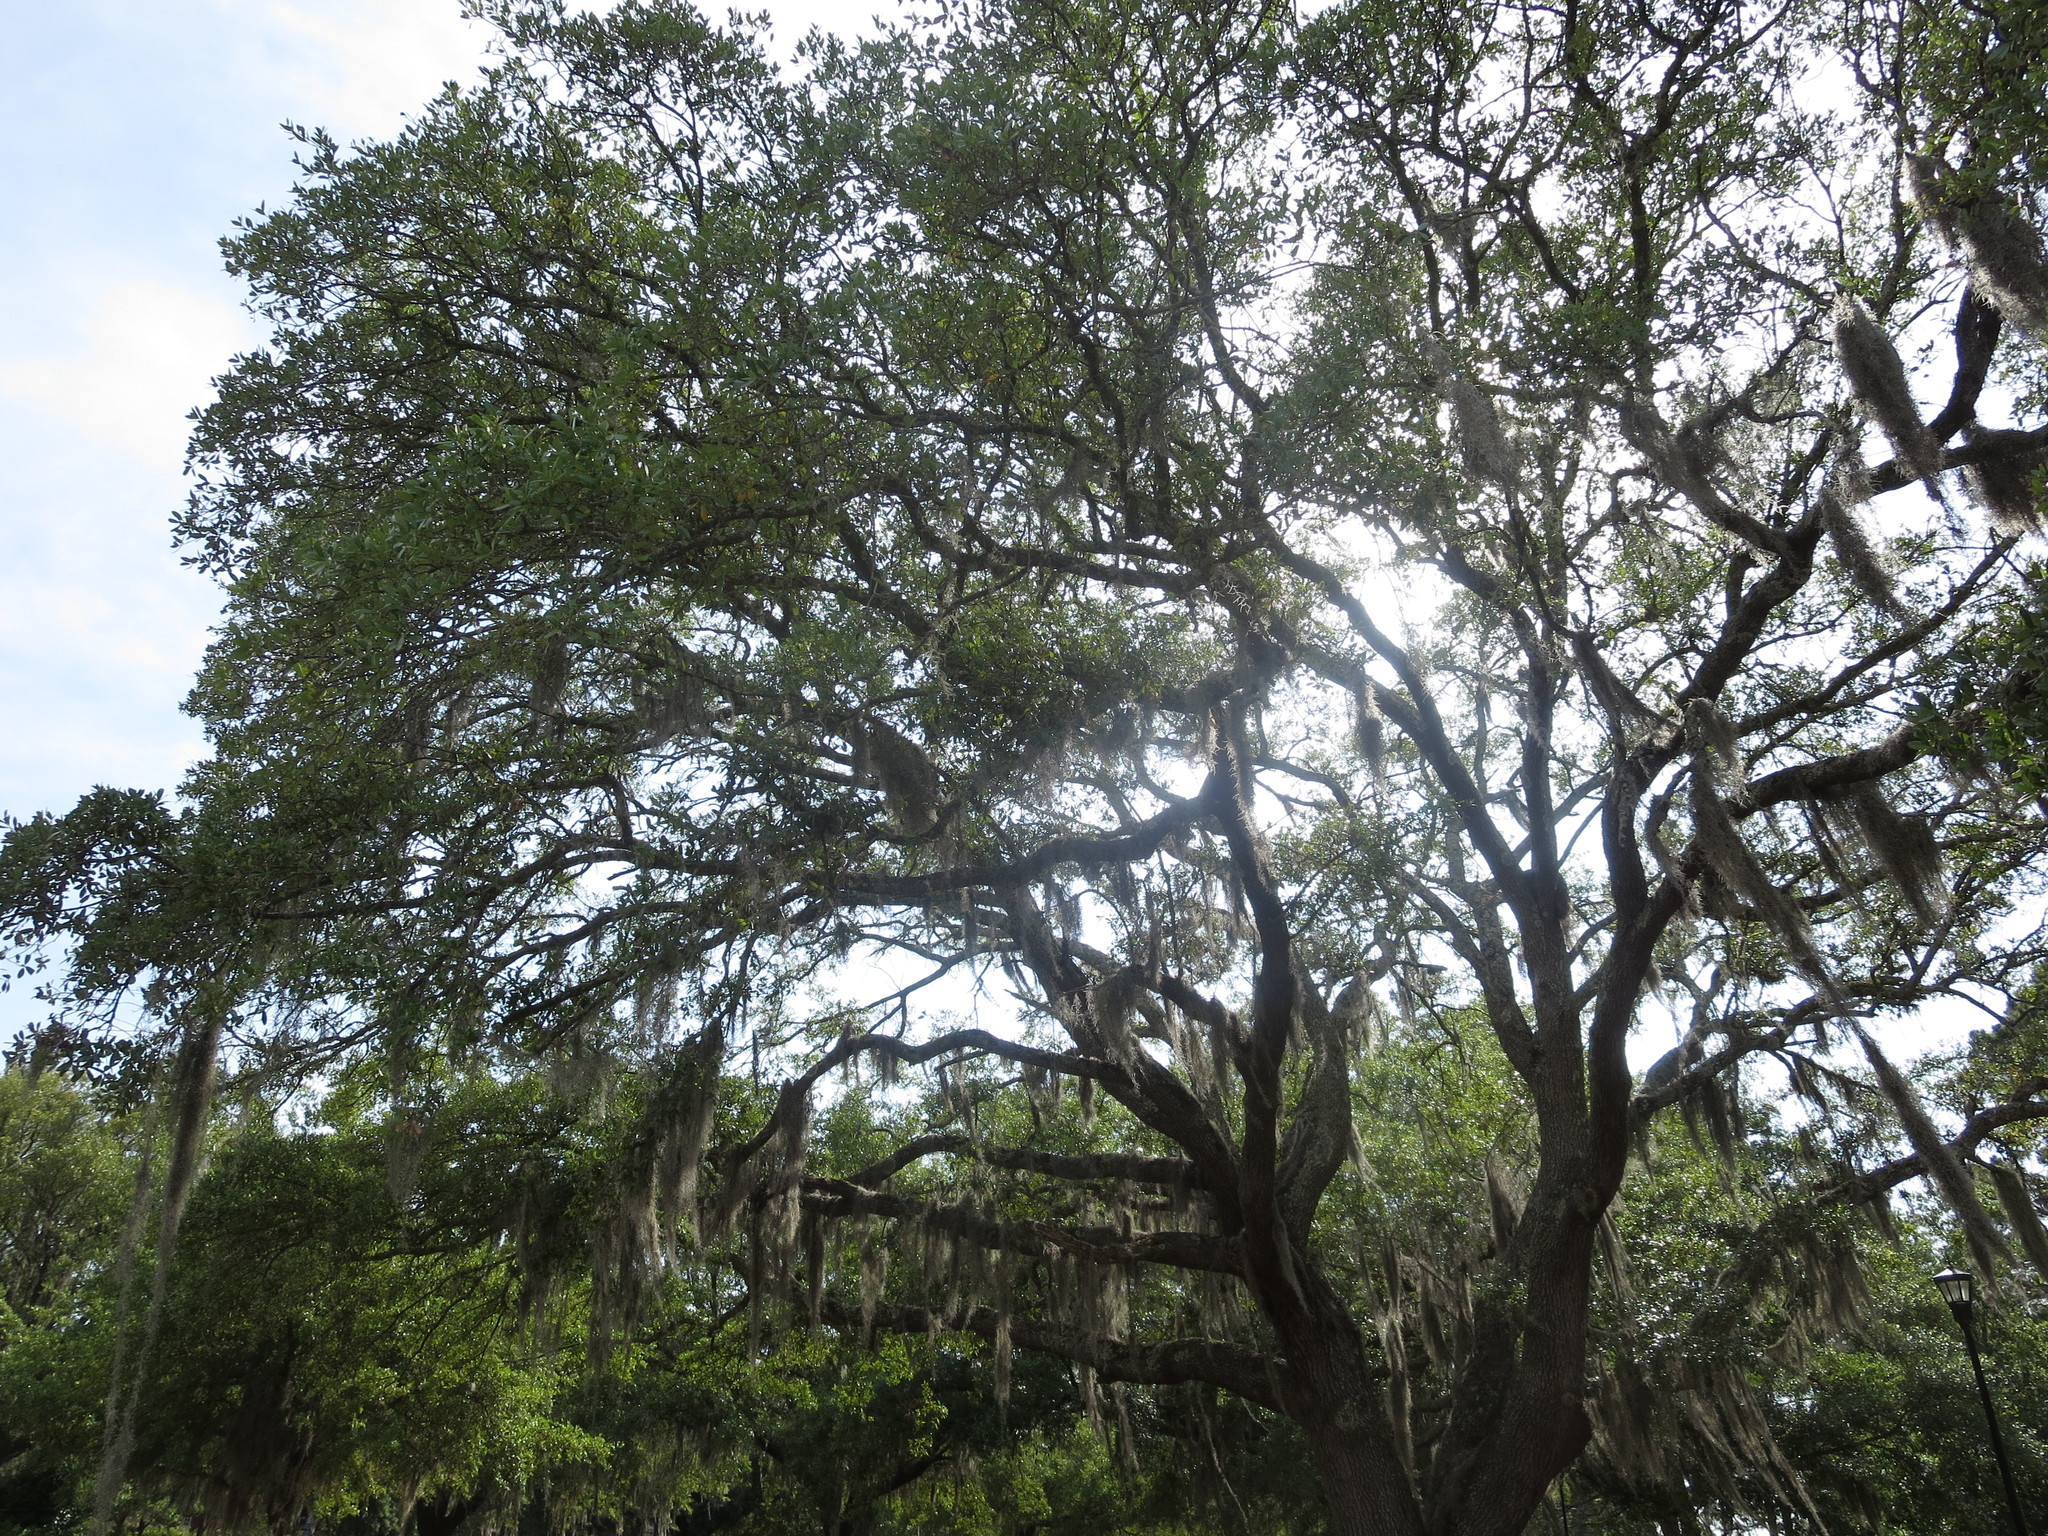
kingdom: Plantae
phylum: Tracheophyta
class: Liliopsida
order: Poales
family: Bromeliaceae
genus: Tillandsia
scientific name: Tillandsia usneoides
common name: Spanish moss
